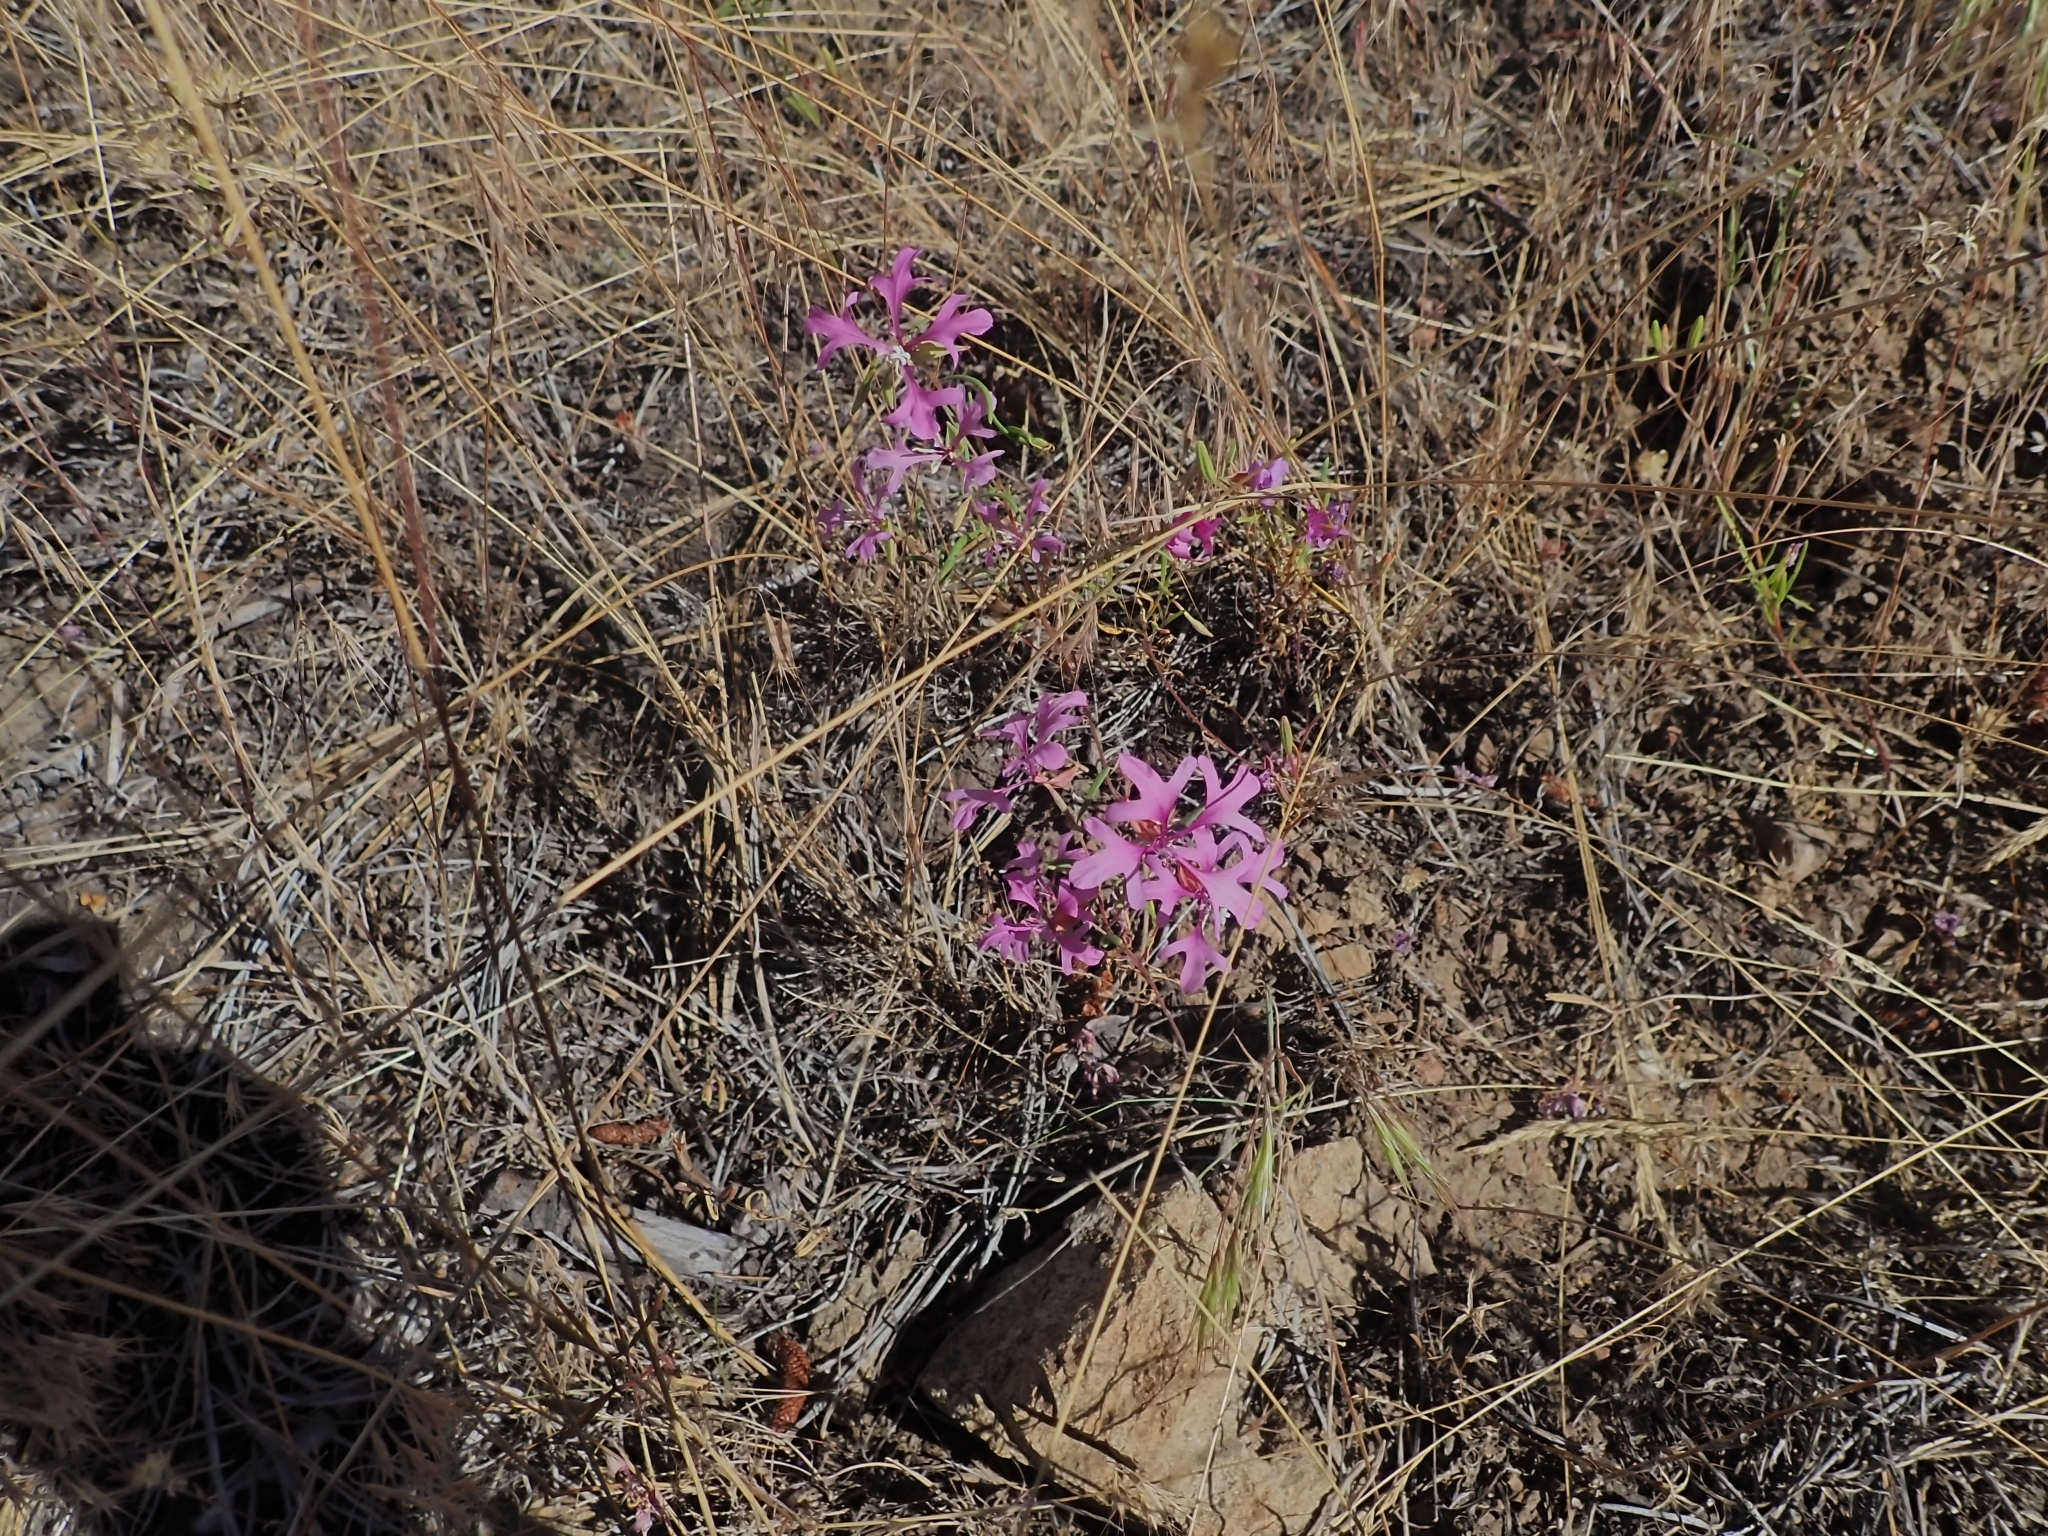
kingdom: Plantae
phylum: Tracheophyta
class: Magnoliopsida
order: Myrtales
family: Onagraceae
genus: Clarkia
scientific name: Clarkia pulchella
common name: Deer horn
